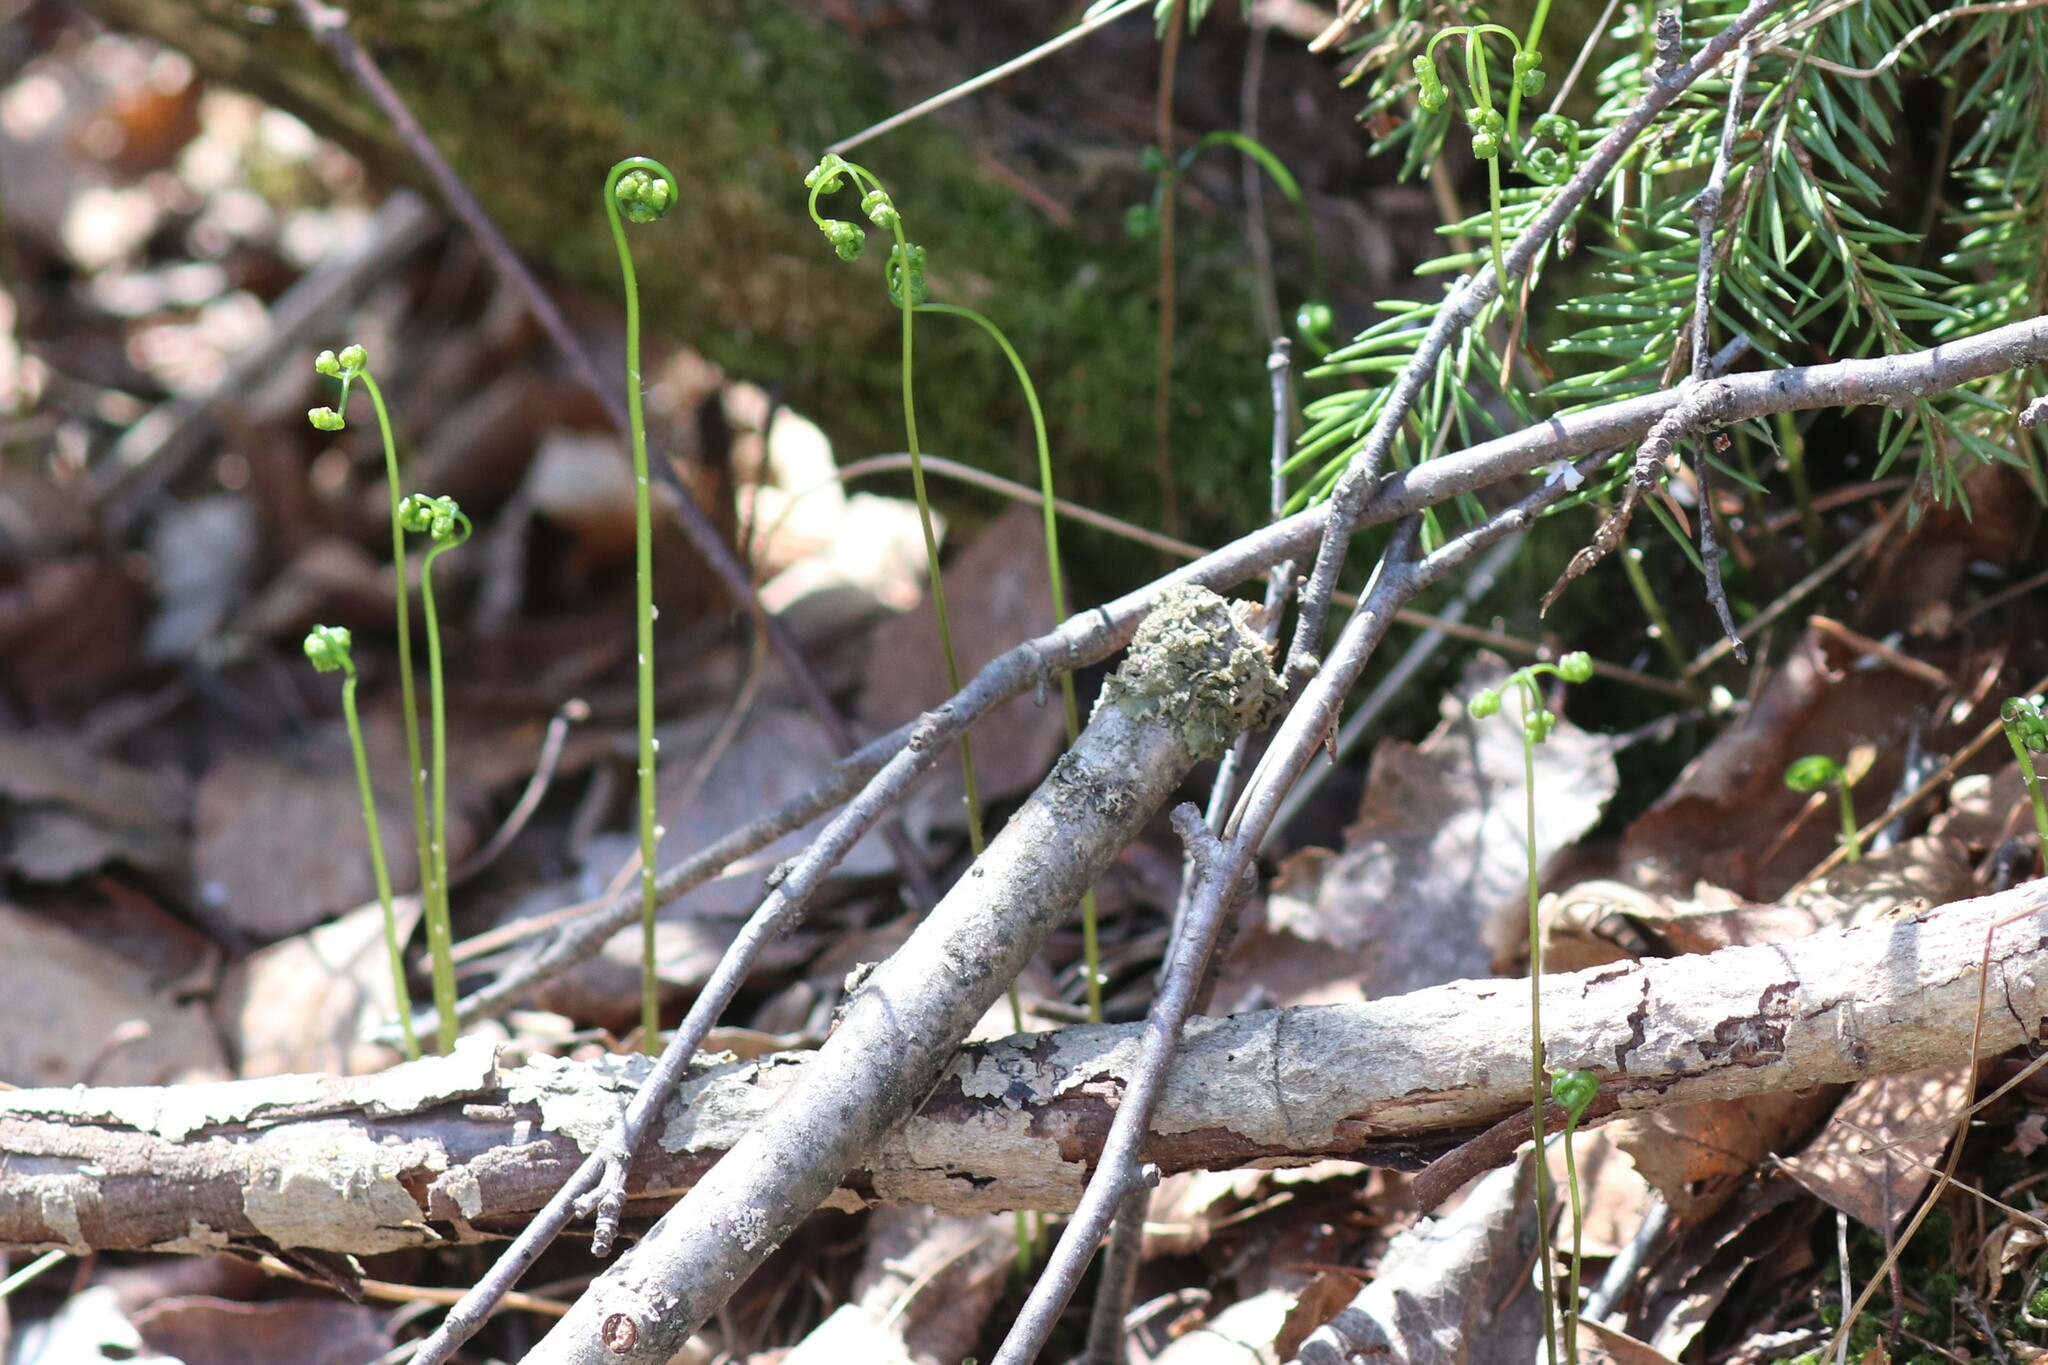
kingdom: Plantae
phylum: Tracheophyta
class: Polypodiopsida
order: Polypodiales
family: Cystopteridaceae
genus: Gymnocarpium
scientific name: Gymnocarpium dryopteris
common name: Oak fern
